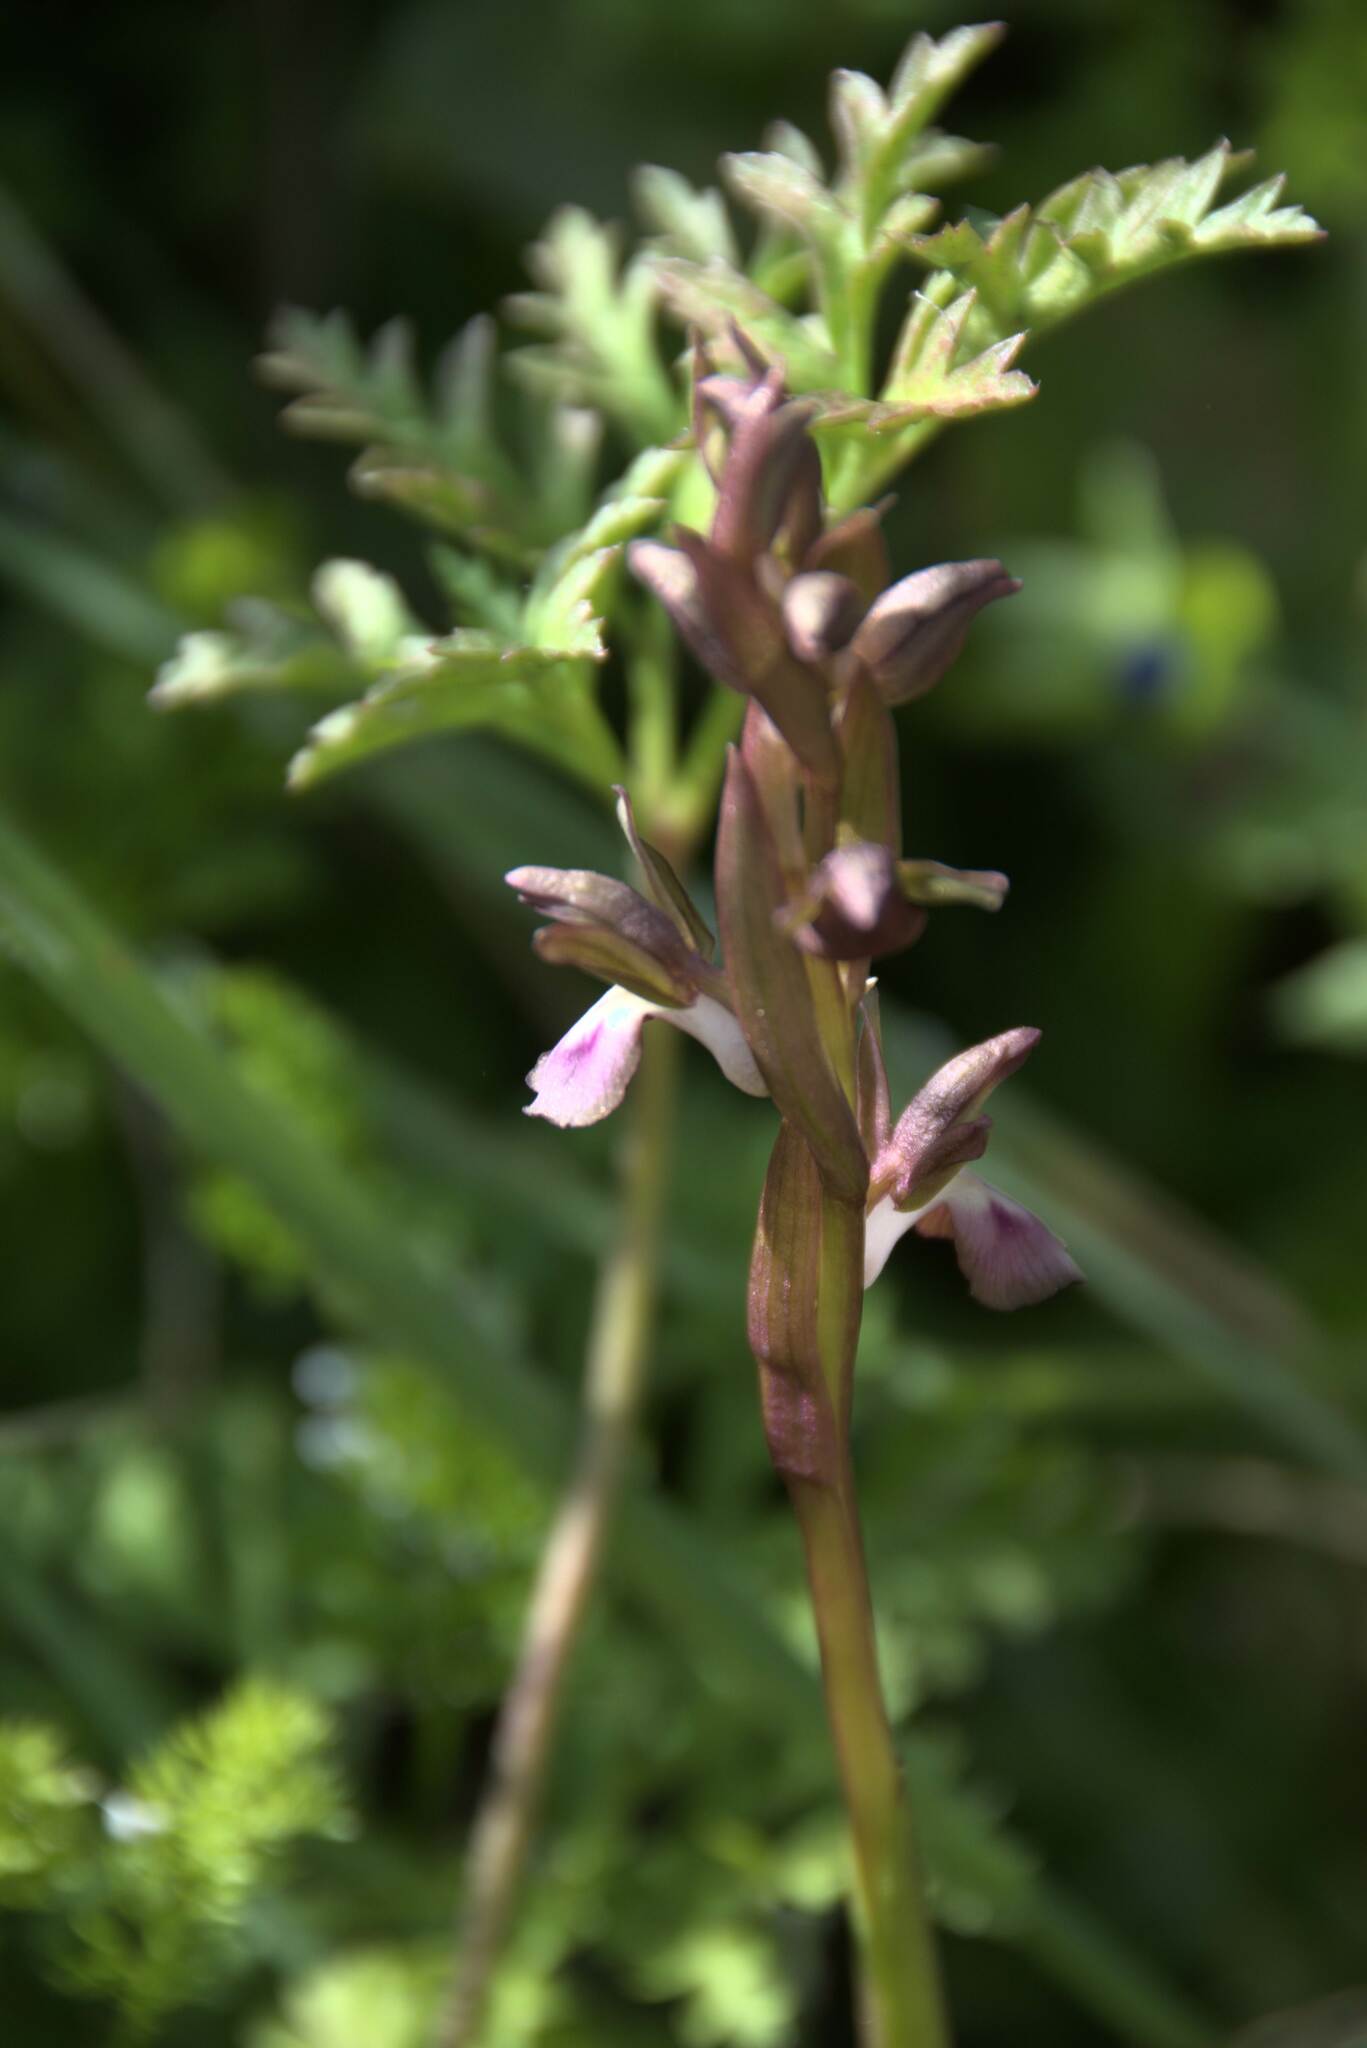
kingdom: Plantae
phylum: Tracheophyta
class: Liliopsida
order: Asparagales
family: Orchidaceae
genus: Anacamptis
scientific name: Anacamptis collina
